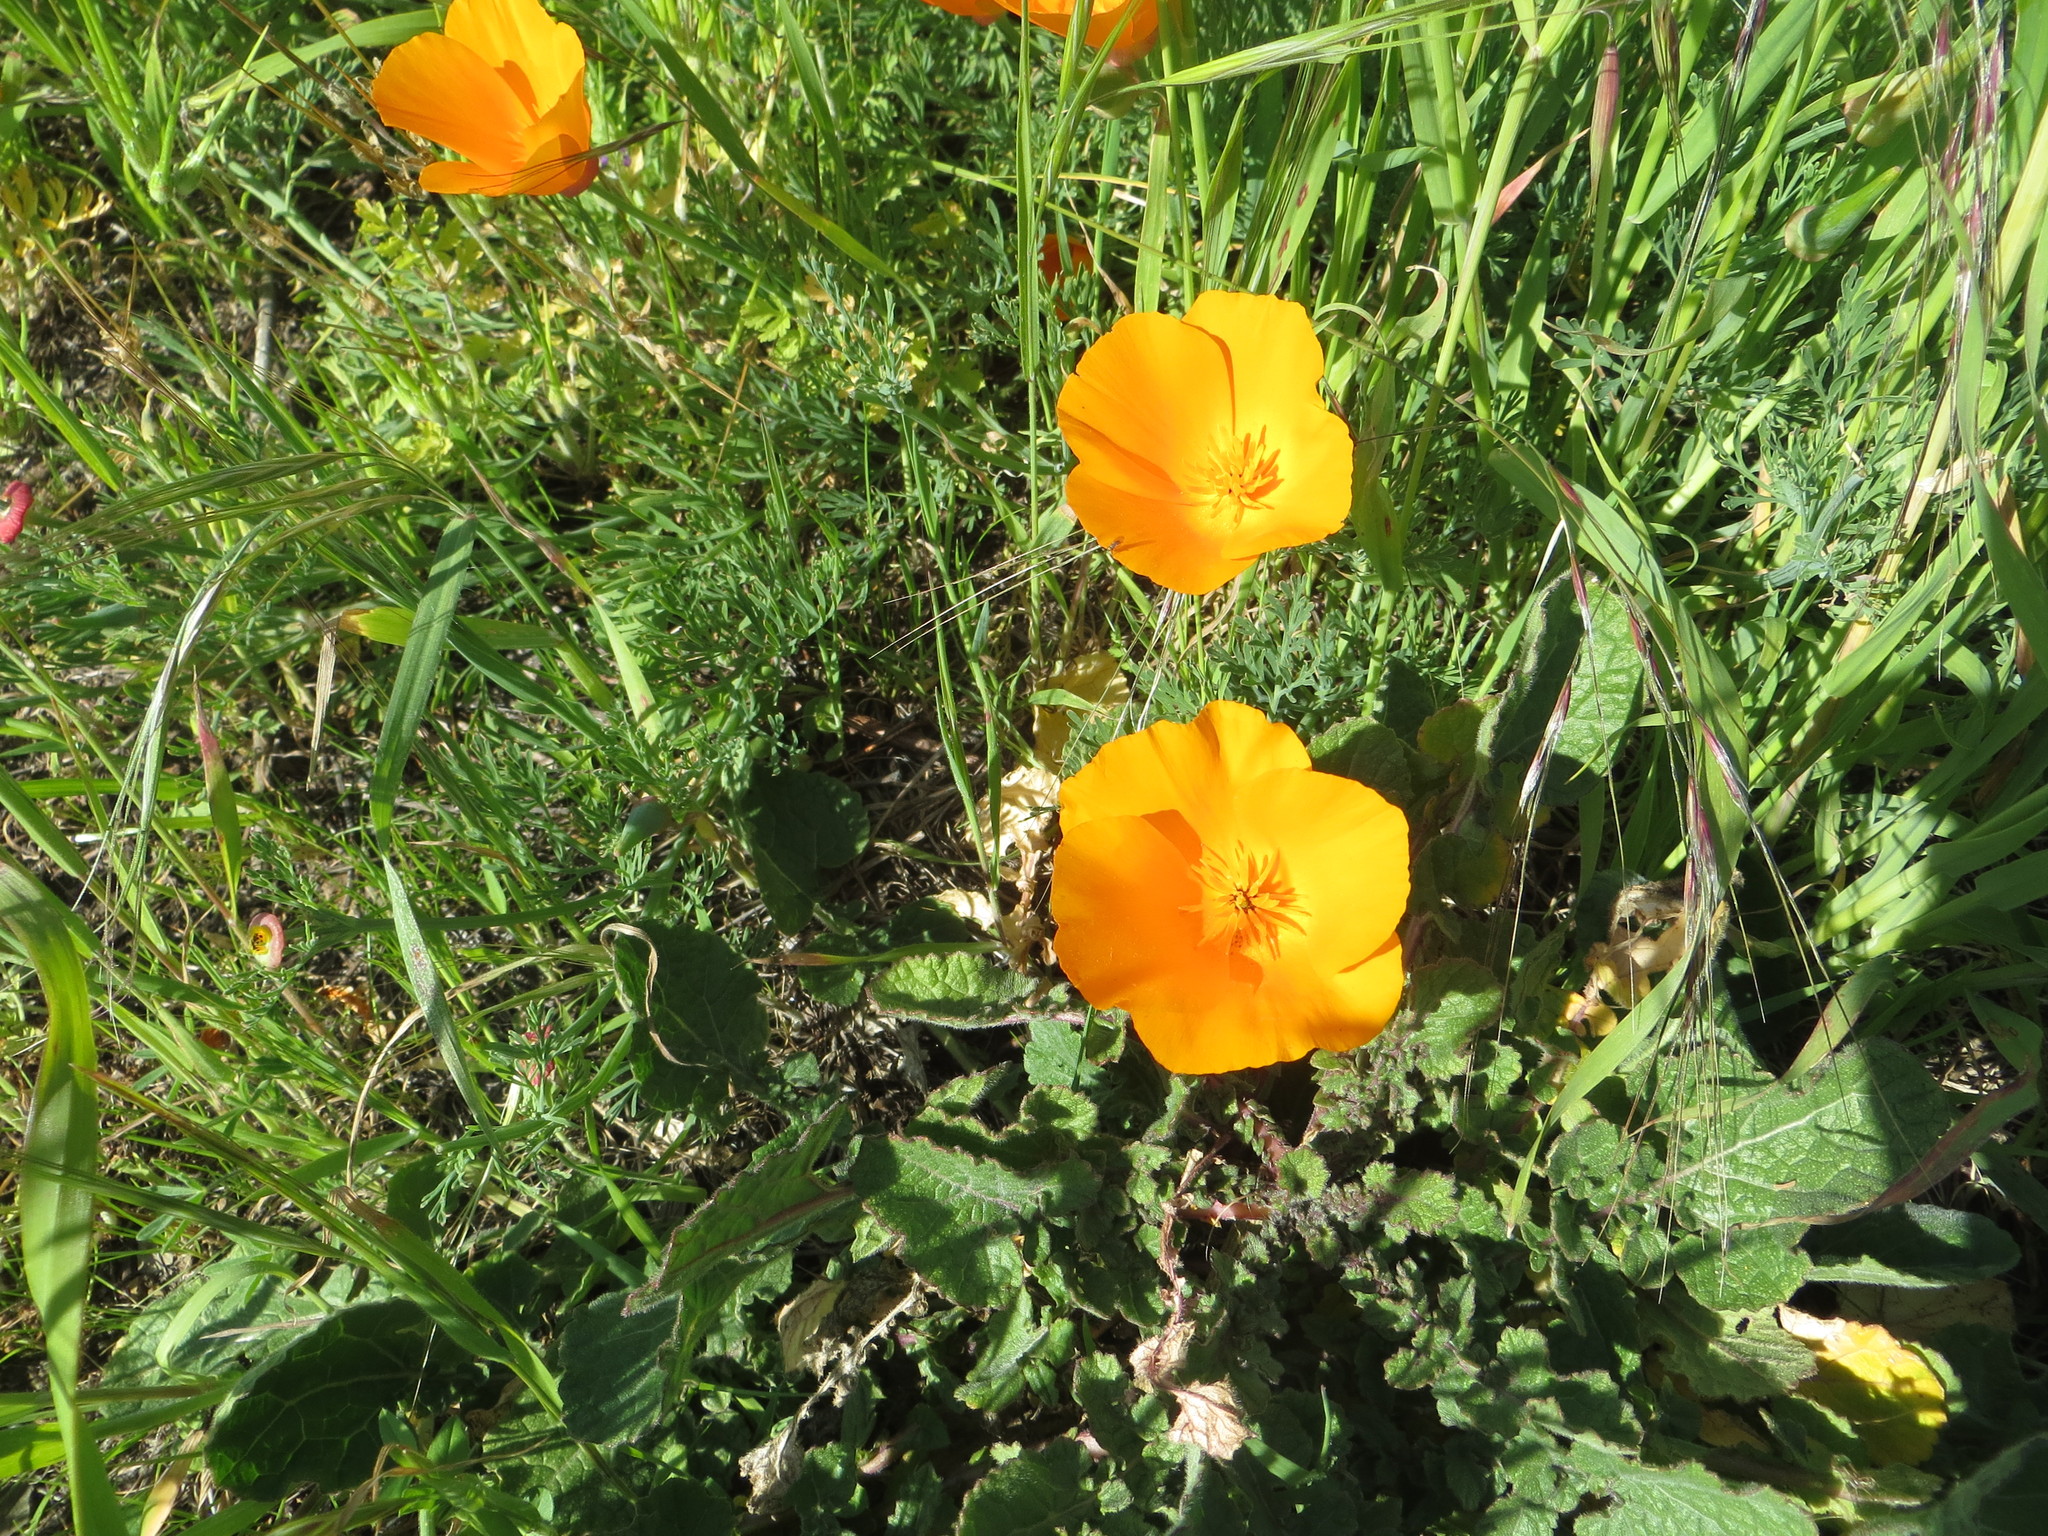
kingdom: Plantae
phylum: Tracheophyta
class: Magnoliopsida
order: Ranunculales
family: Papaveraceae
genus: Eschscholzia
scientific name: Eschscholzia californica
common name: California poppy
